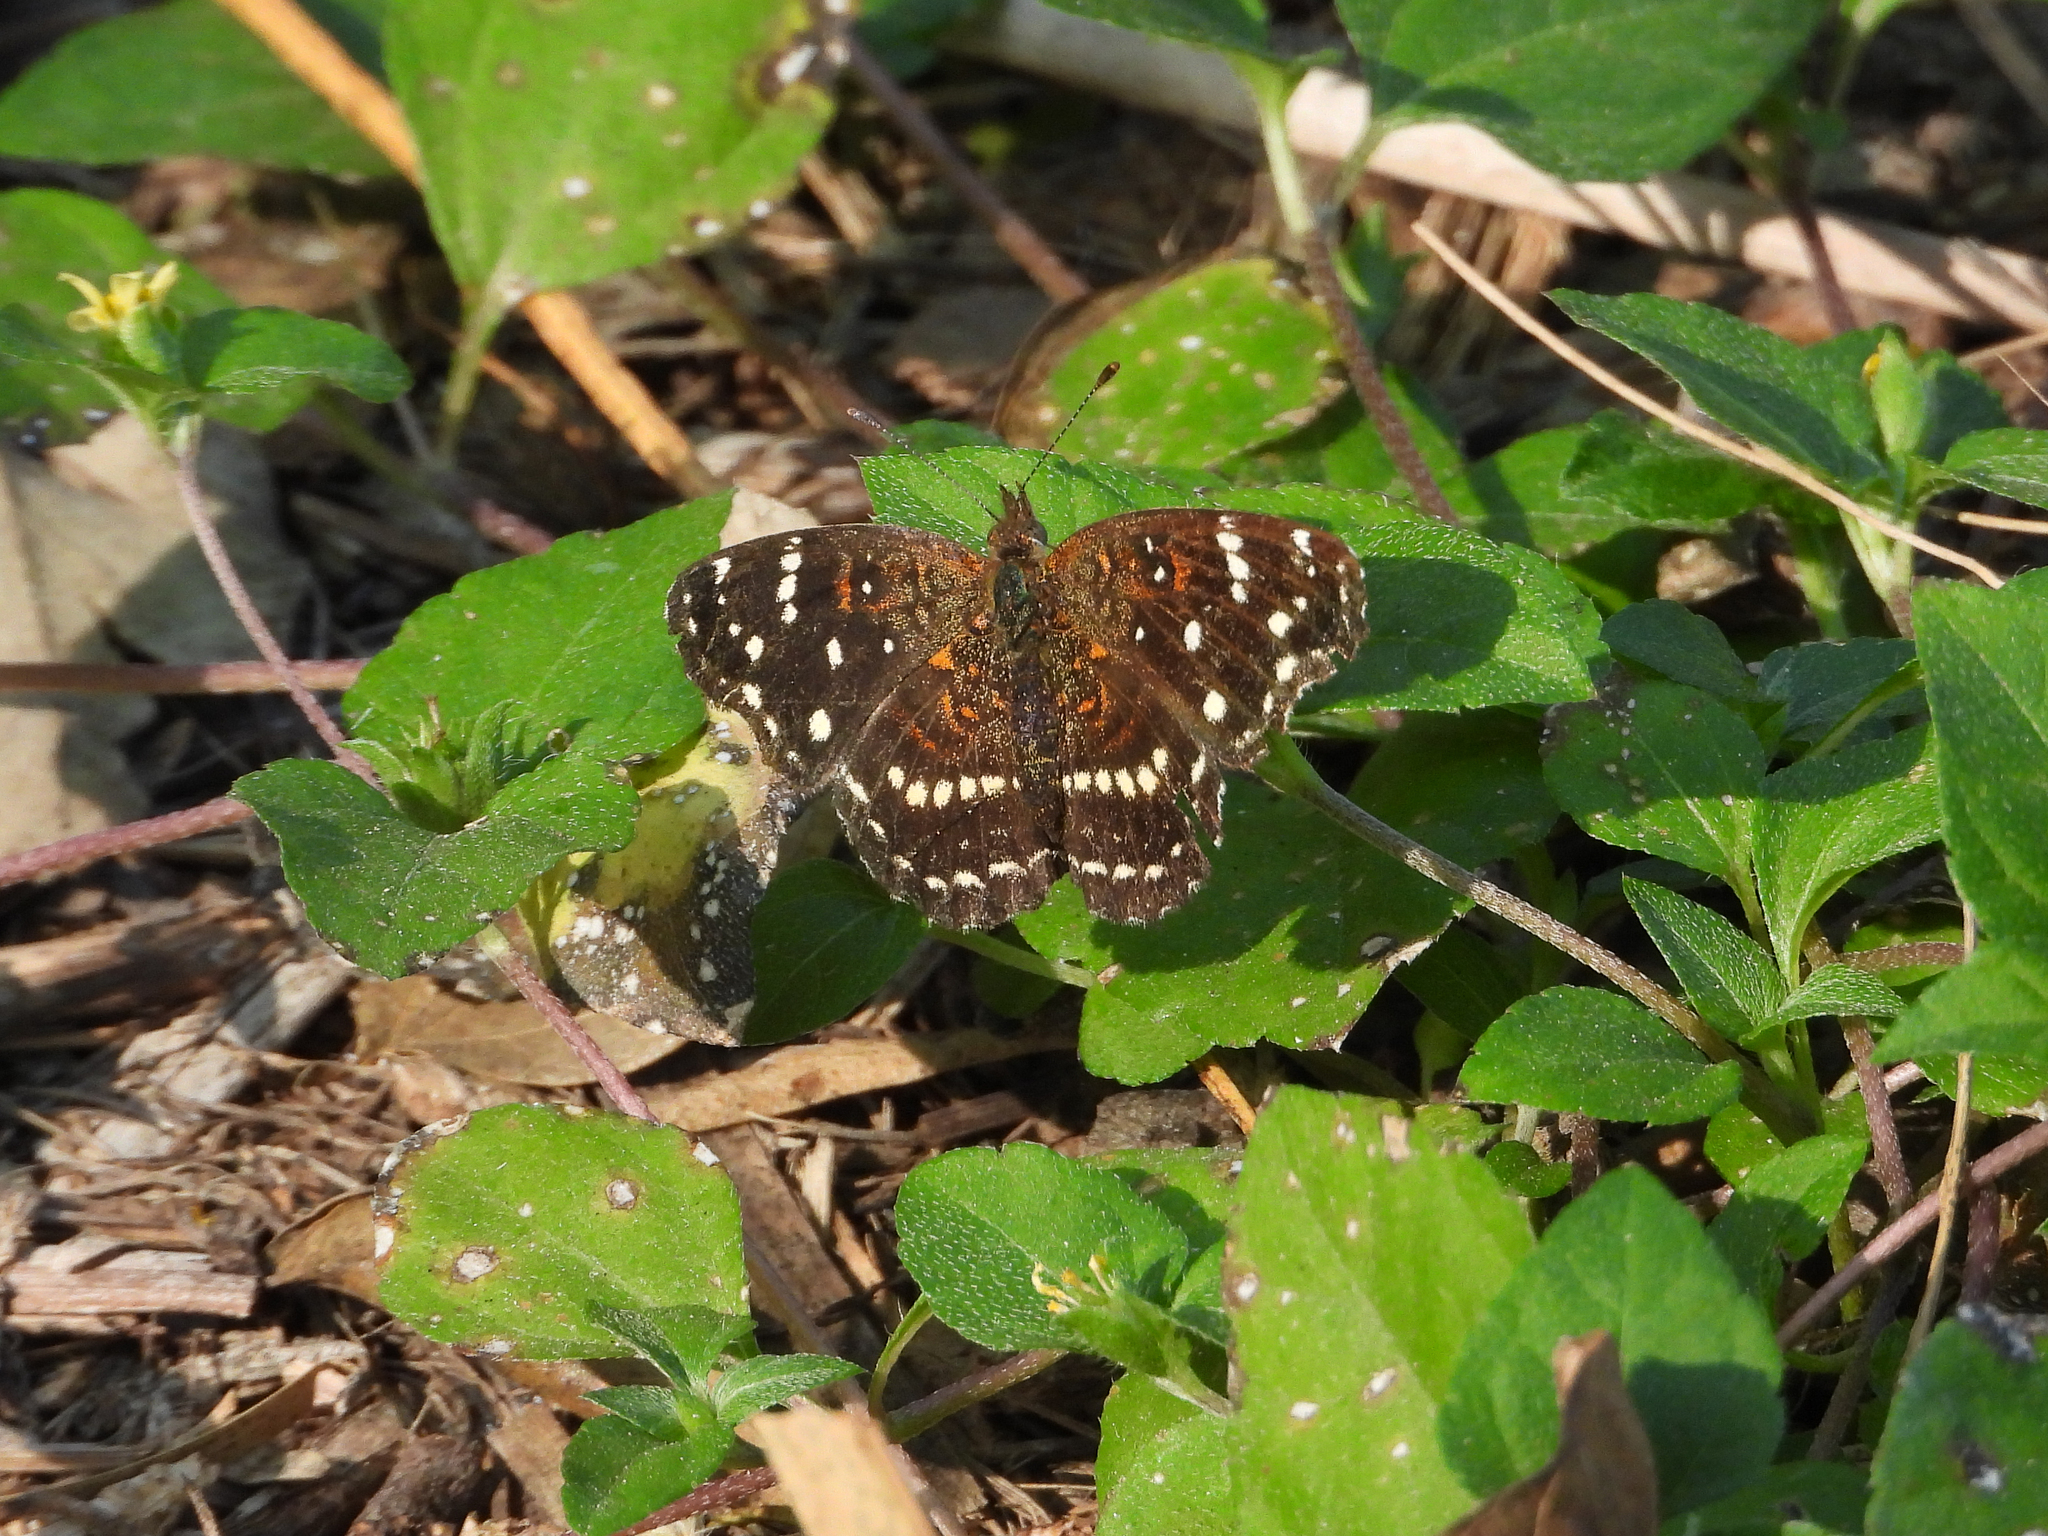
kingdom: Animalia
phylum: Arthropoda
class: Insecta
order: Lepidoptera
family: Nymphalidae
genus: Anthanassa
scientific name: Anthanassa texana
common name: Texan crescent
